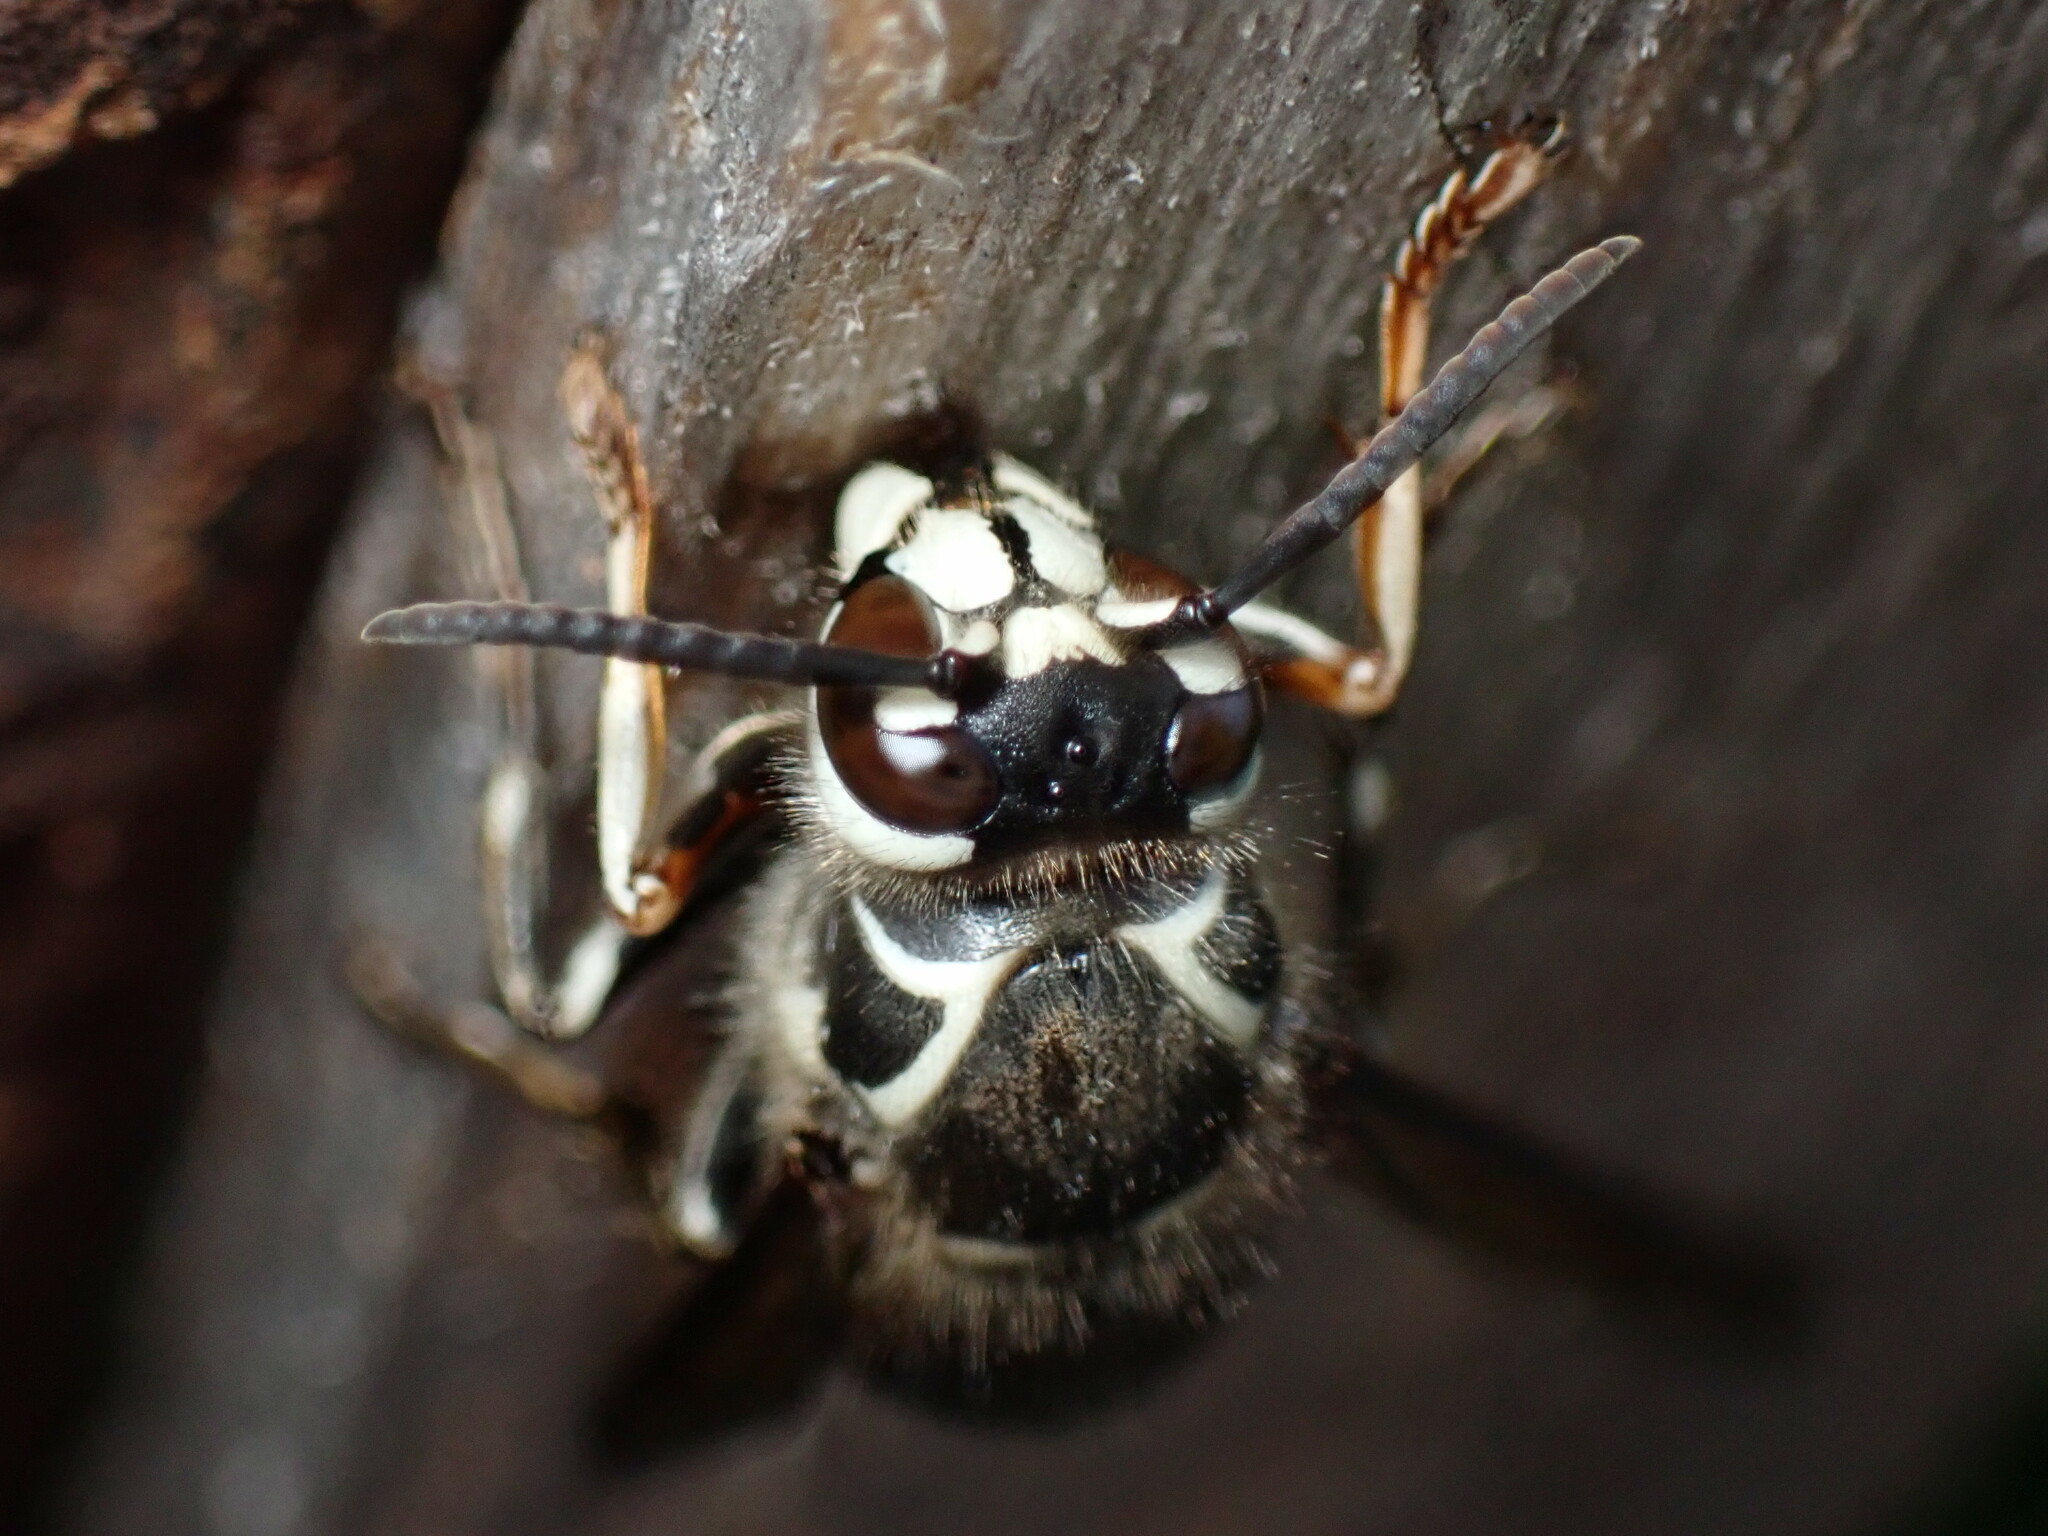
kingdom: Animalia
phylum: Arthropoda
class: Insecta
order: Hymenoptera
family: Vespidae
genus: Dolichovespula
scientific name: Dolichovespula maculata
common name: Bald-faced hornet
